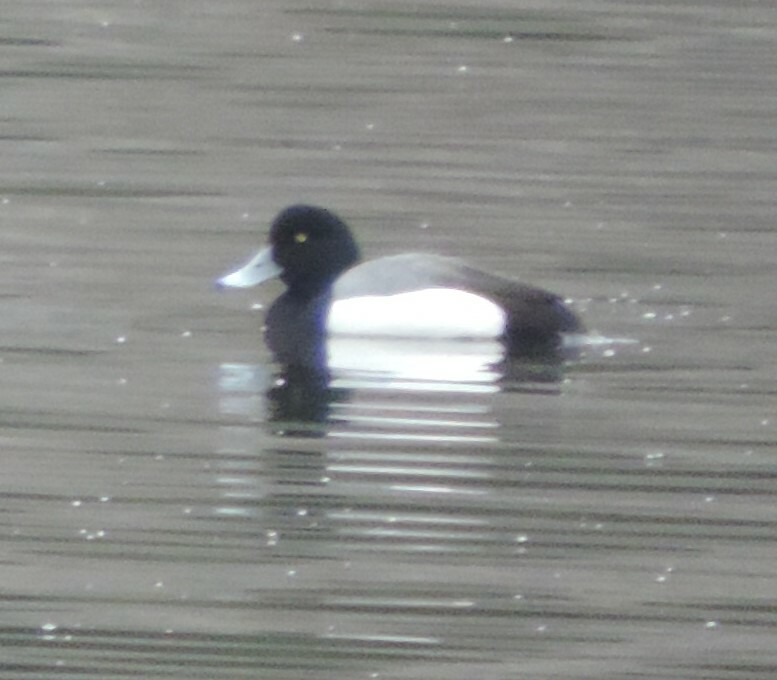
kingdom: Animalia
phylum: Chordata
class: Aves
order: Anseriformes
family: Anatidae
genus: Aythya
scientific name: Aythya marila
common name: Greater scaup
